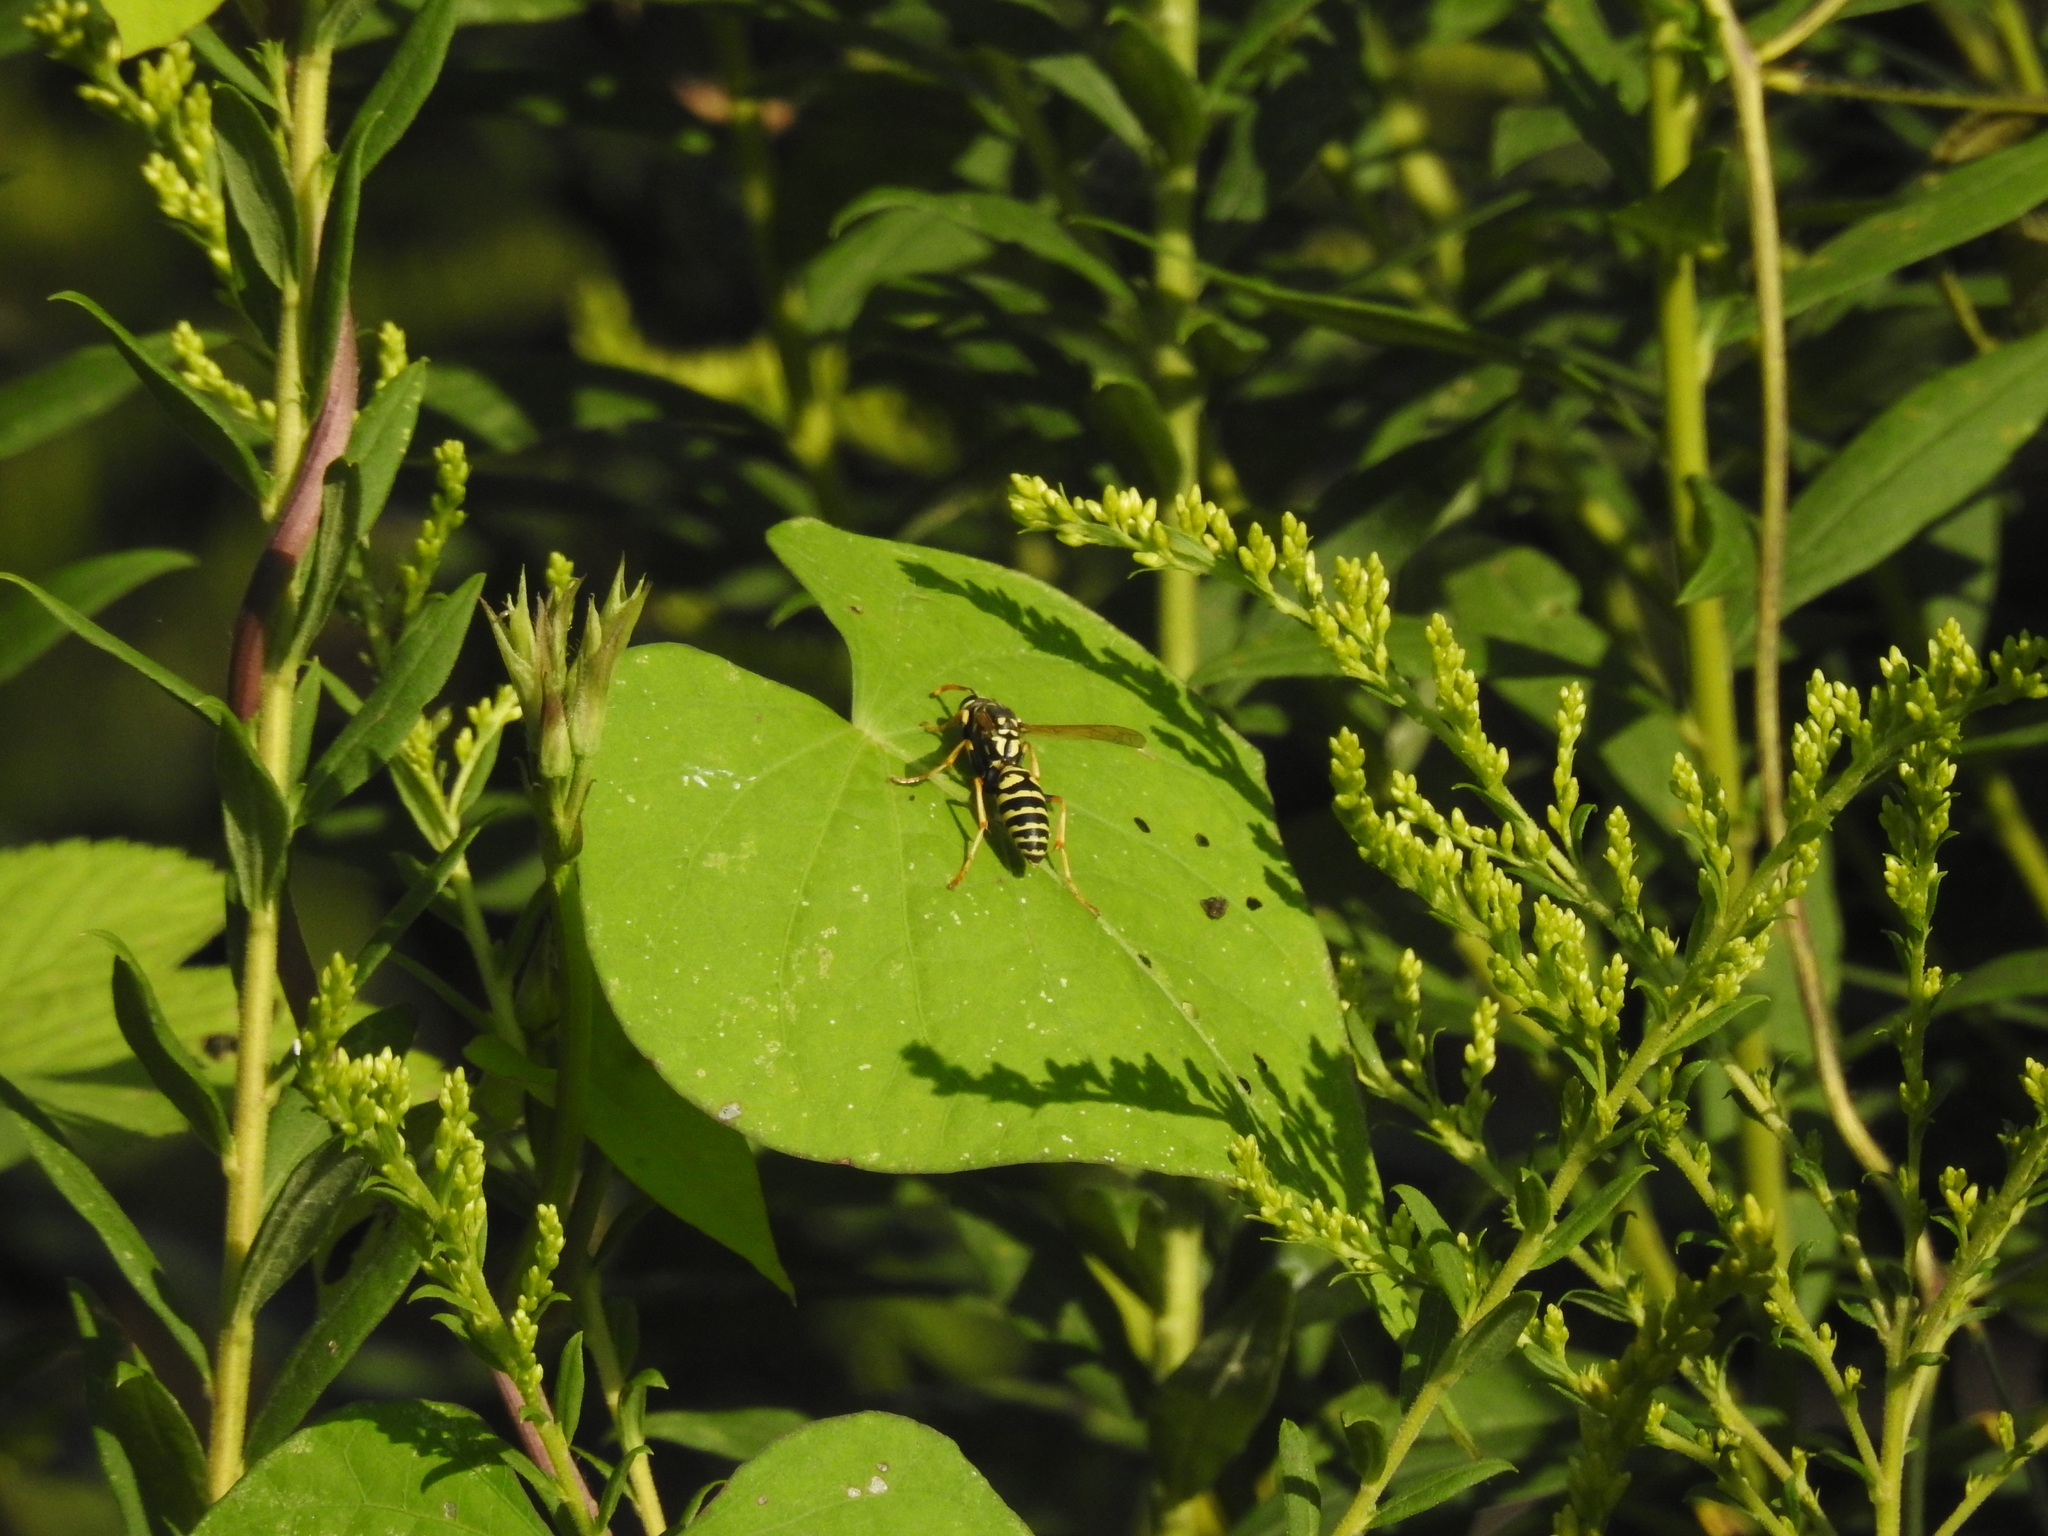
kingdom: Animalia
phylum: Arthropoda
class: Insecta
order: Hymenoptera
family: Eumenidae
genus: Polistes
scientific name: Polistes dominula
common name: Paper wasp
